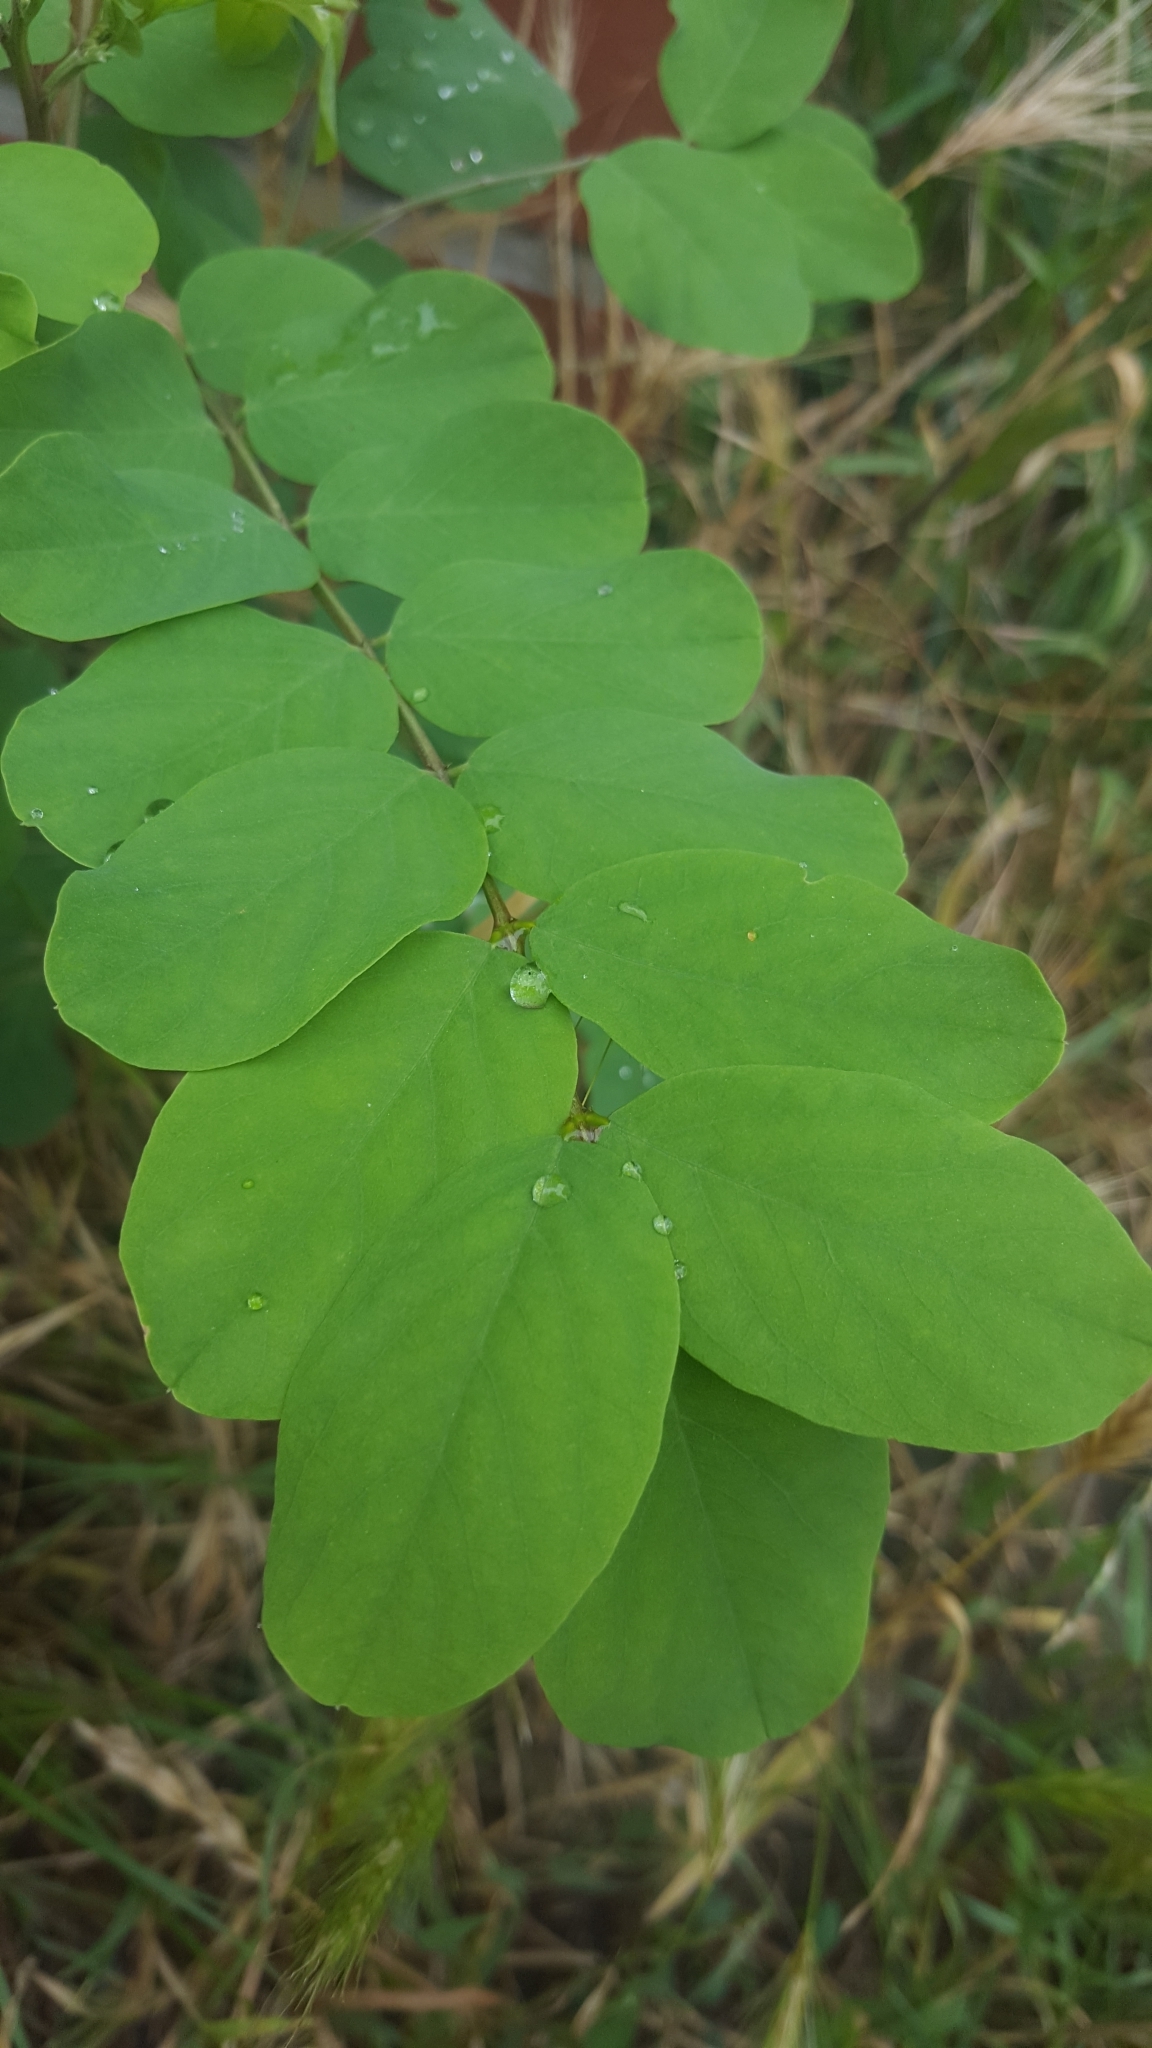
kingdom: Plantae
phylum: Tracheophyta
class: Magnoliopsida
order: Fabales
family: Fabaceae
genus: Robinia
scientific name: Robinia pseudoacacia
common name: Black locust
